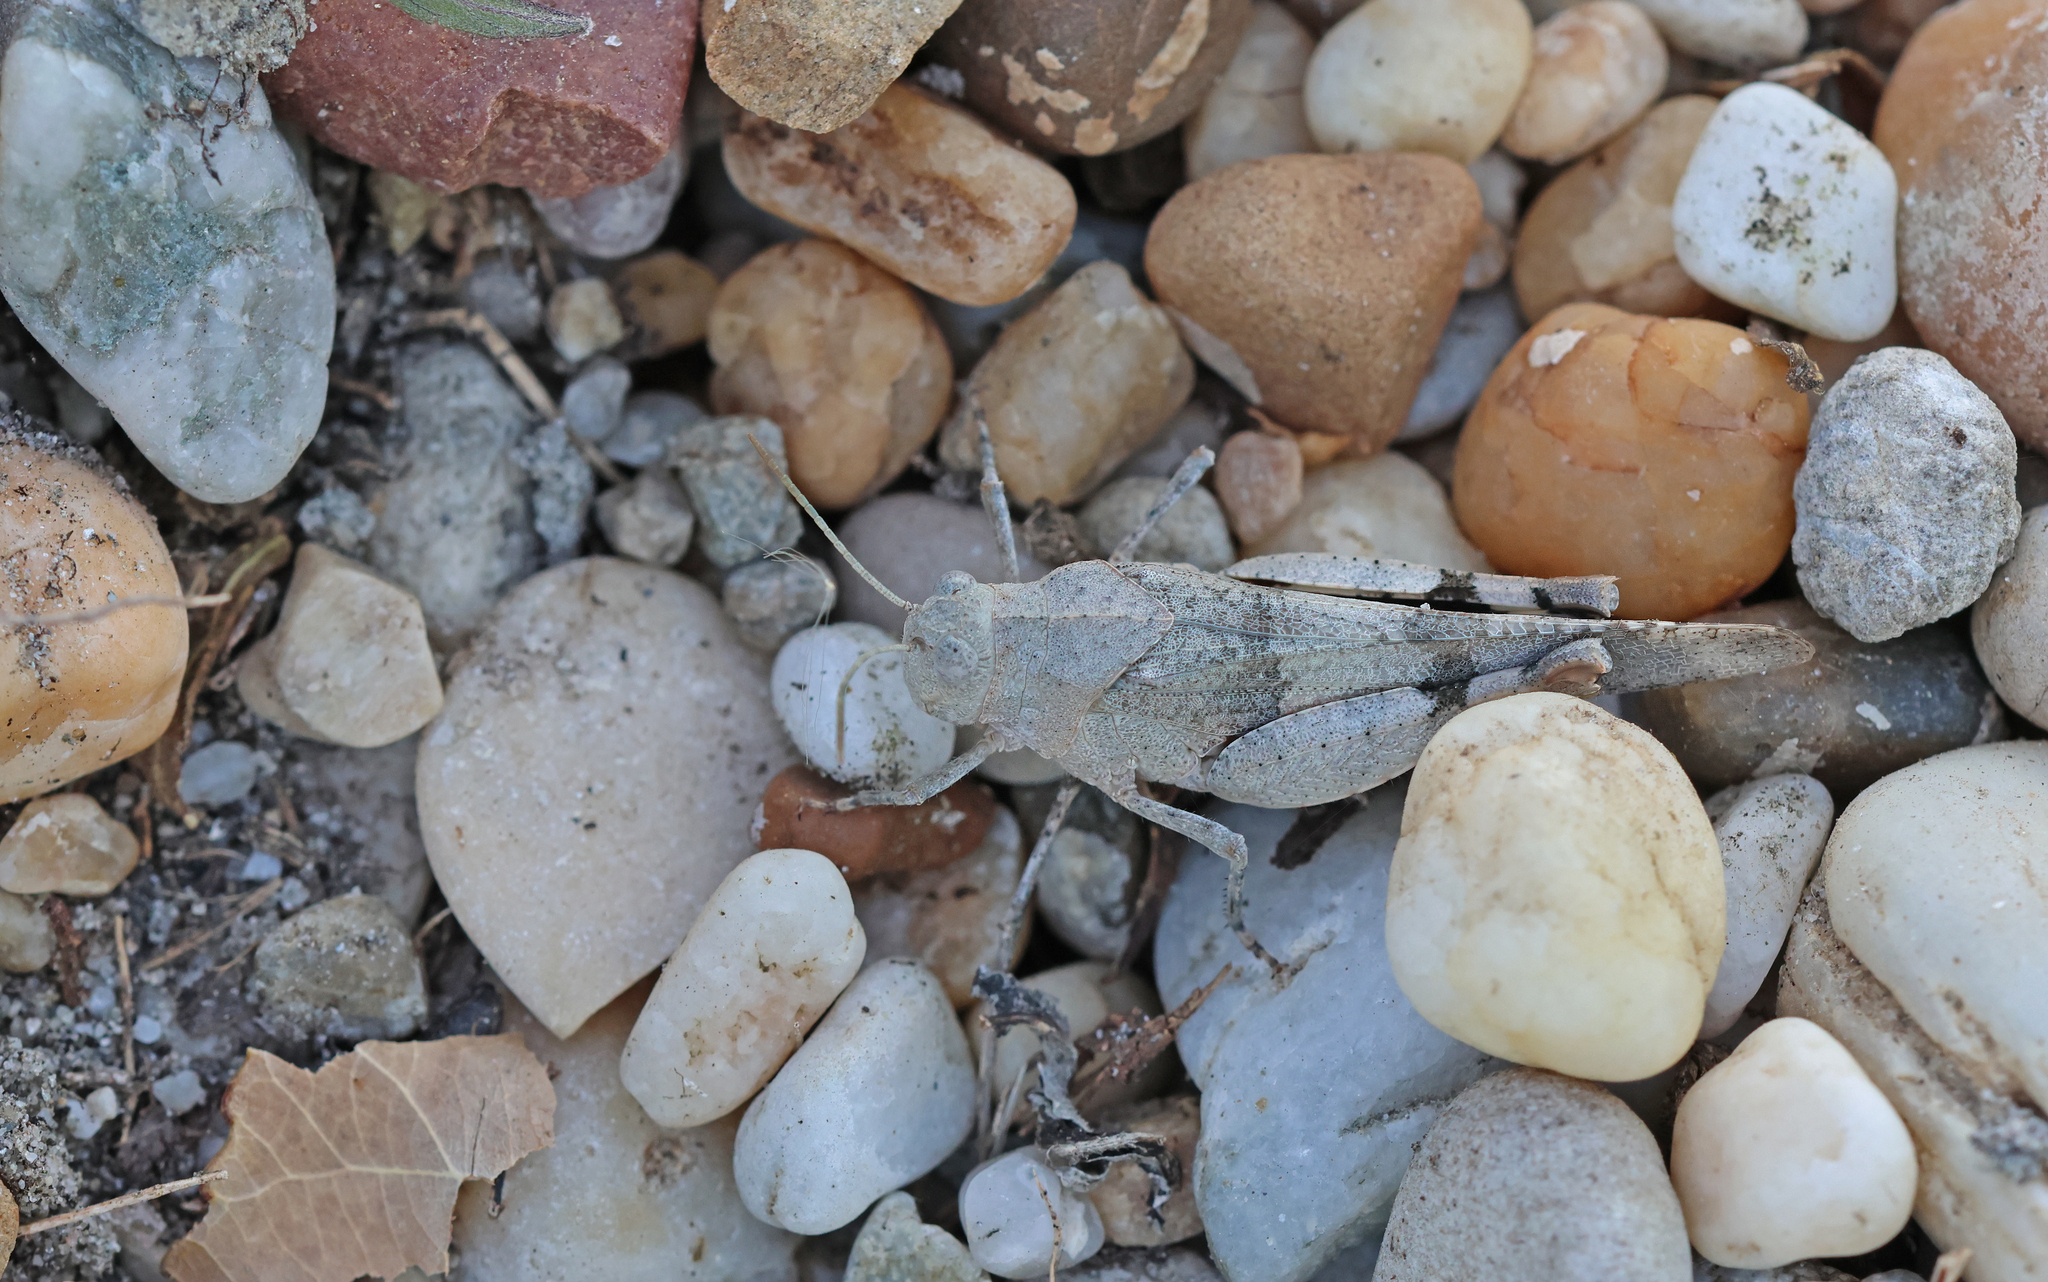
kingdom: Animalia
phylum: Arthropoda
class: Insecta
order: Orthoptera
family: Acrididae
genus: Oedipoda
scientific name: Oedipoda caerulescens
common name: Blue-winged grasshopper
